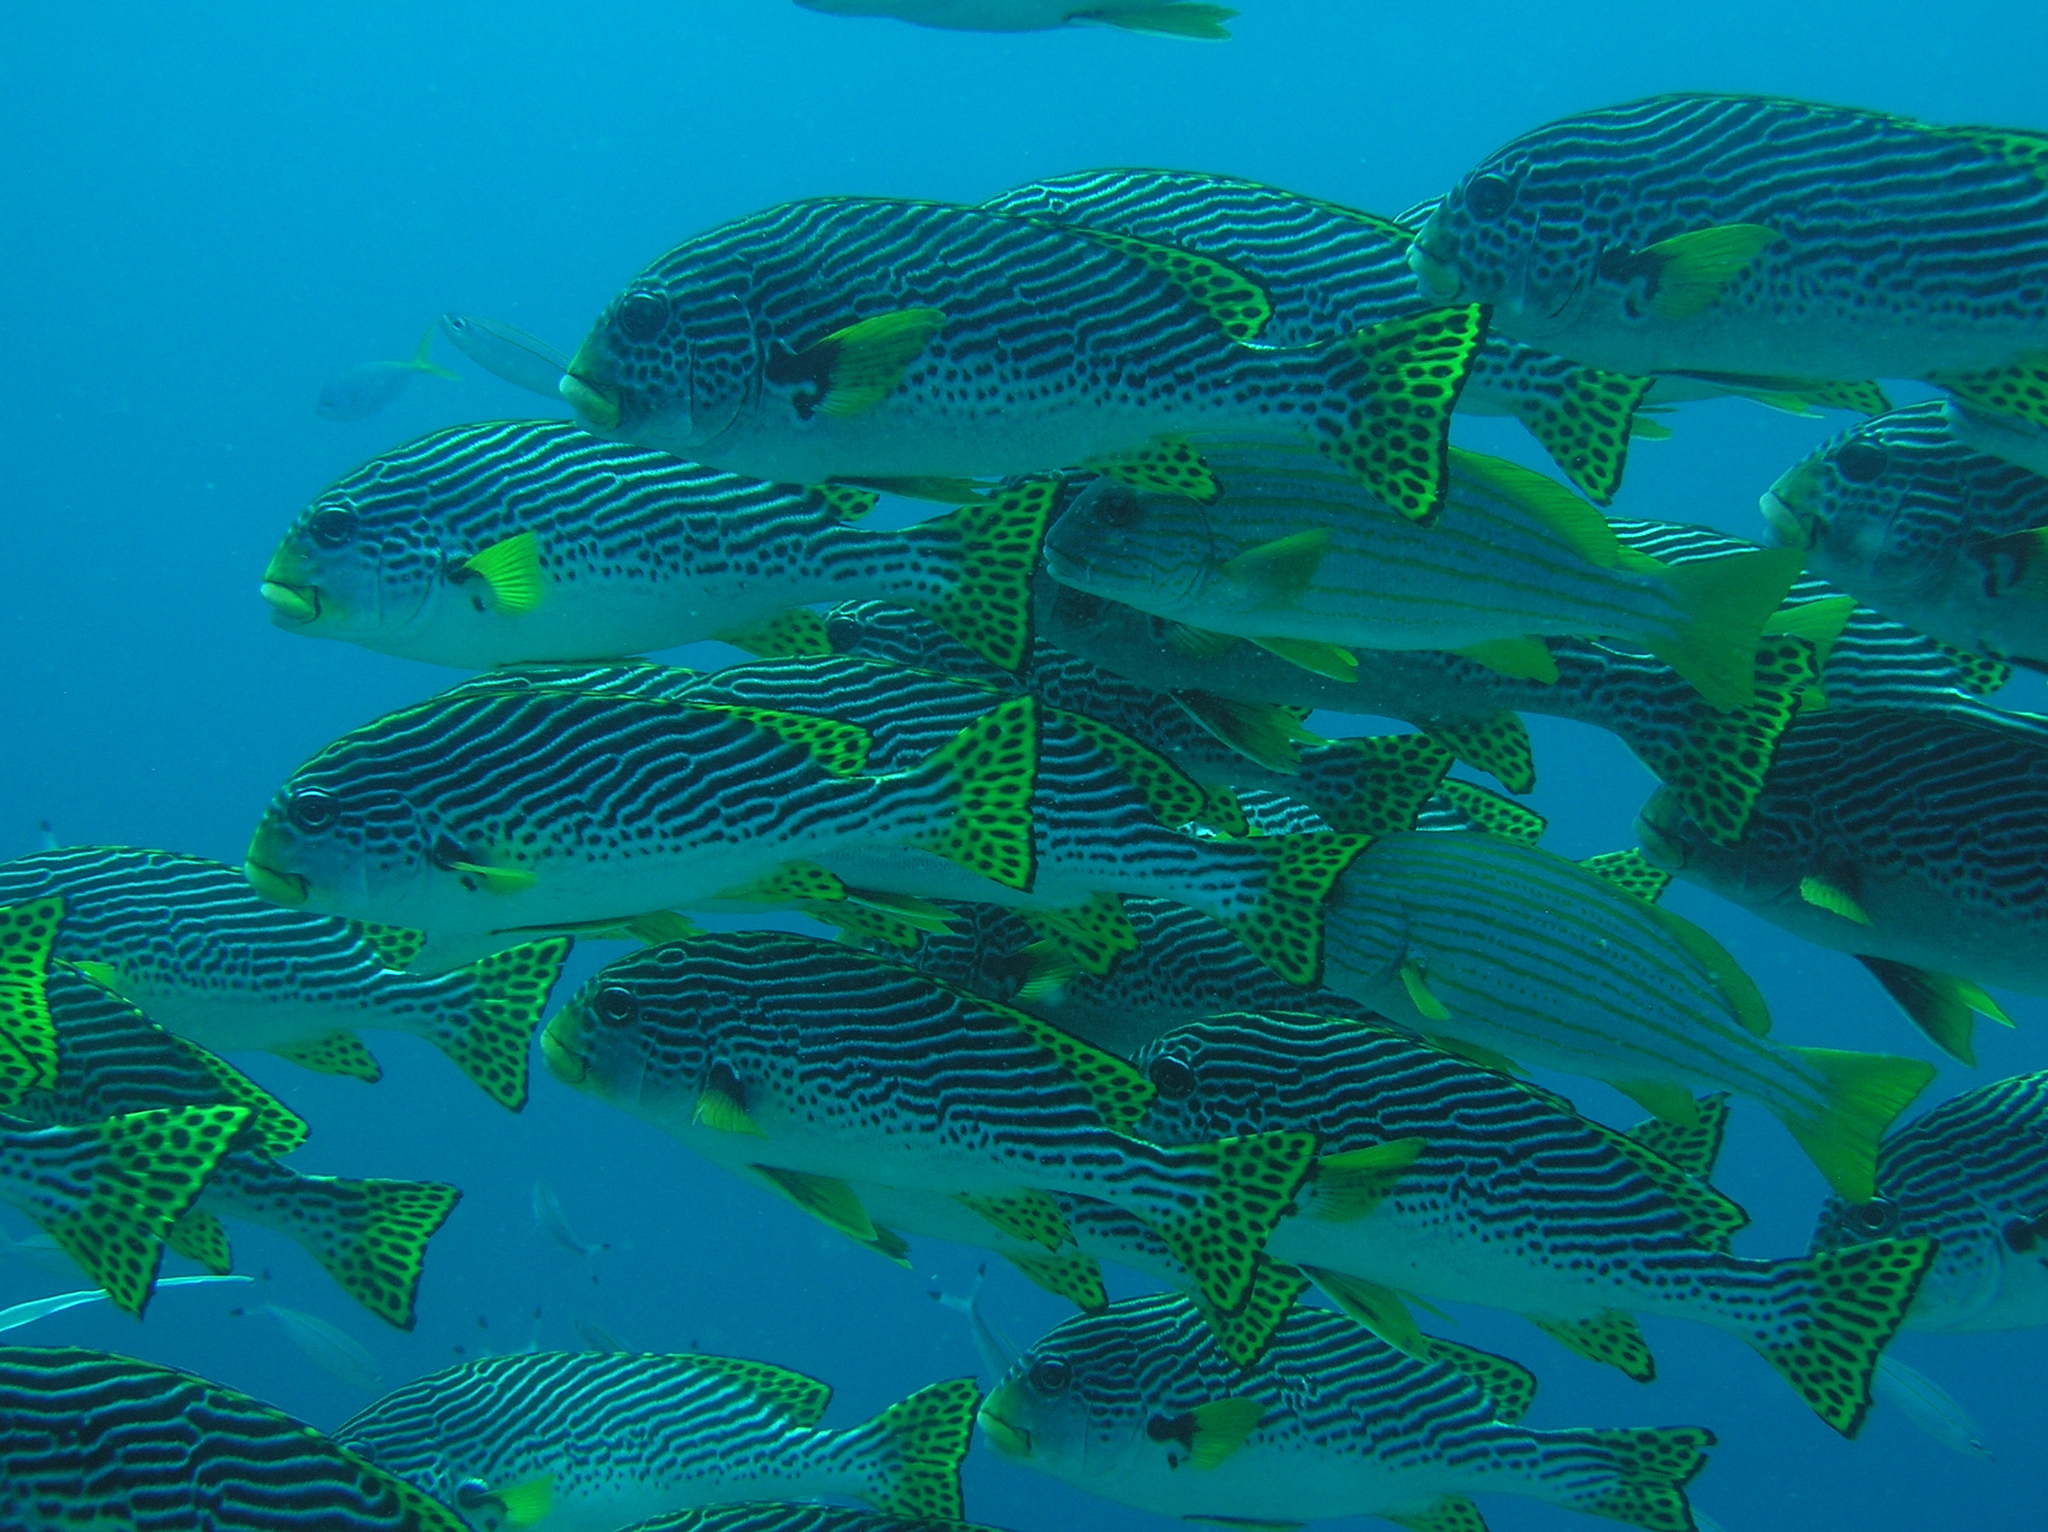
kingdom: Animalia
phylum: Chordata
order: Perciformes
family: Haemulidae
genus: Plectorhinchus
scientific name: Plectorhinchus lineatus
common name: Goldman's sweetlips
